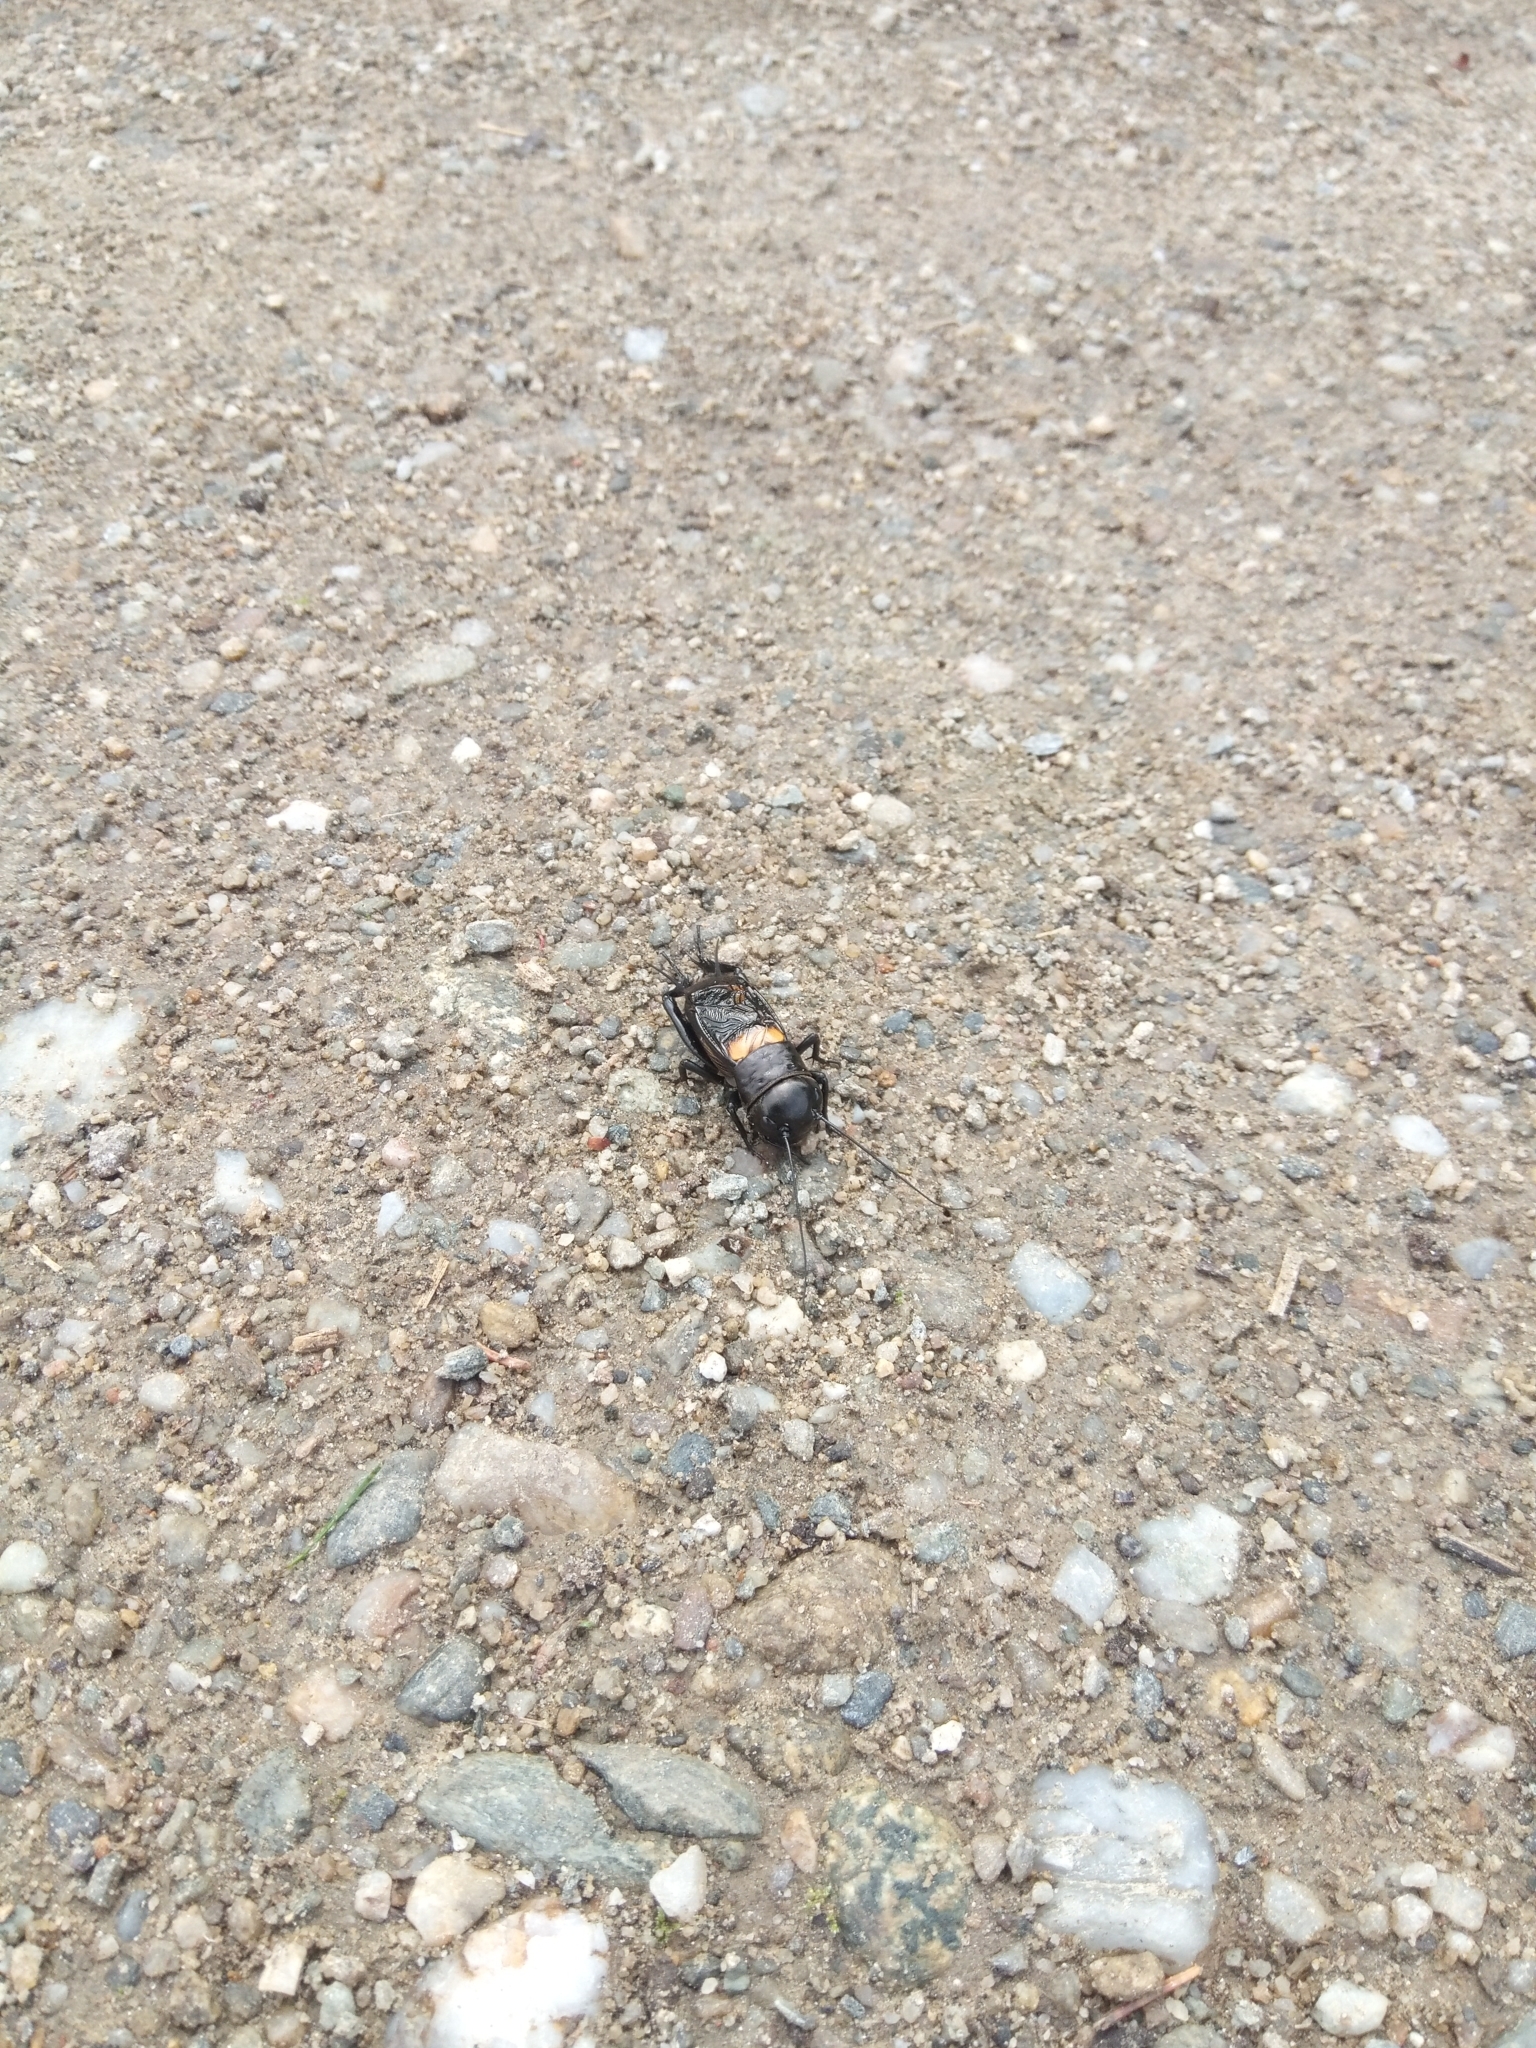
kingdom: Animalia
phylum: Arthropoda
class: Insecta
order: Orthoptera
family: Gryllidae
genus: Gryllus
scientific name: Gryllus campestris
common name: Field cricket
